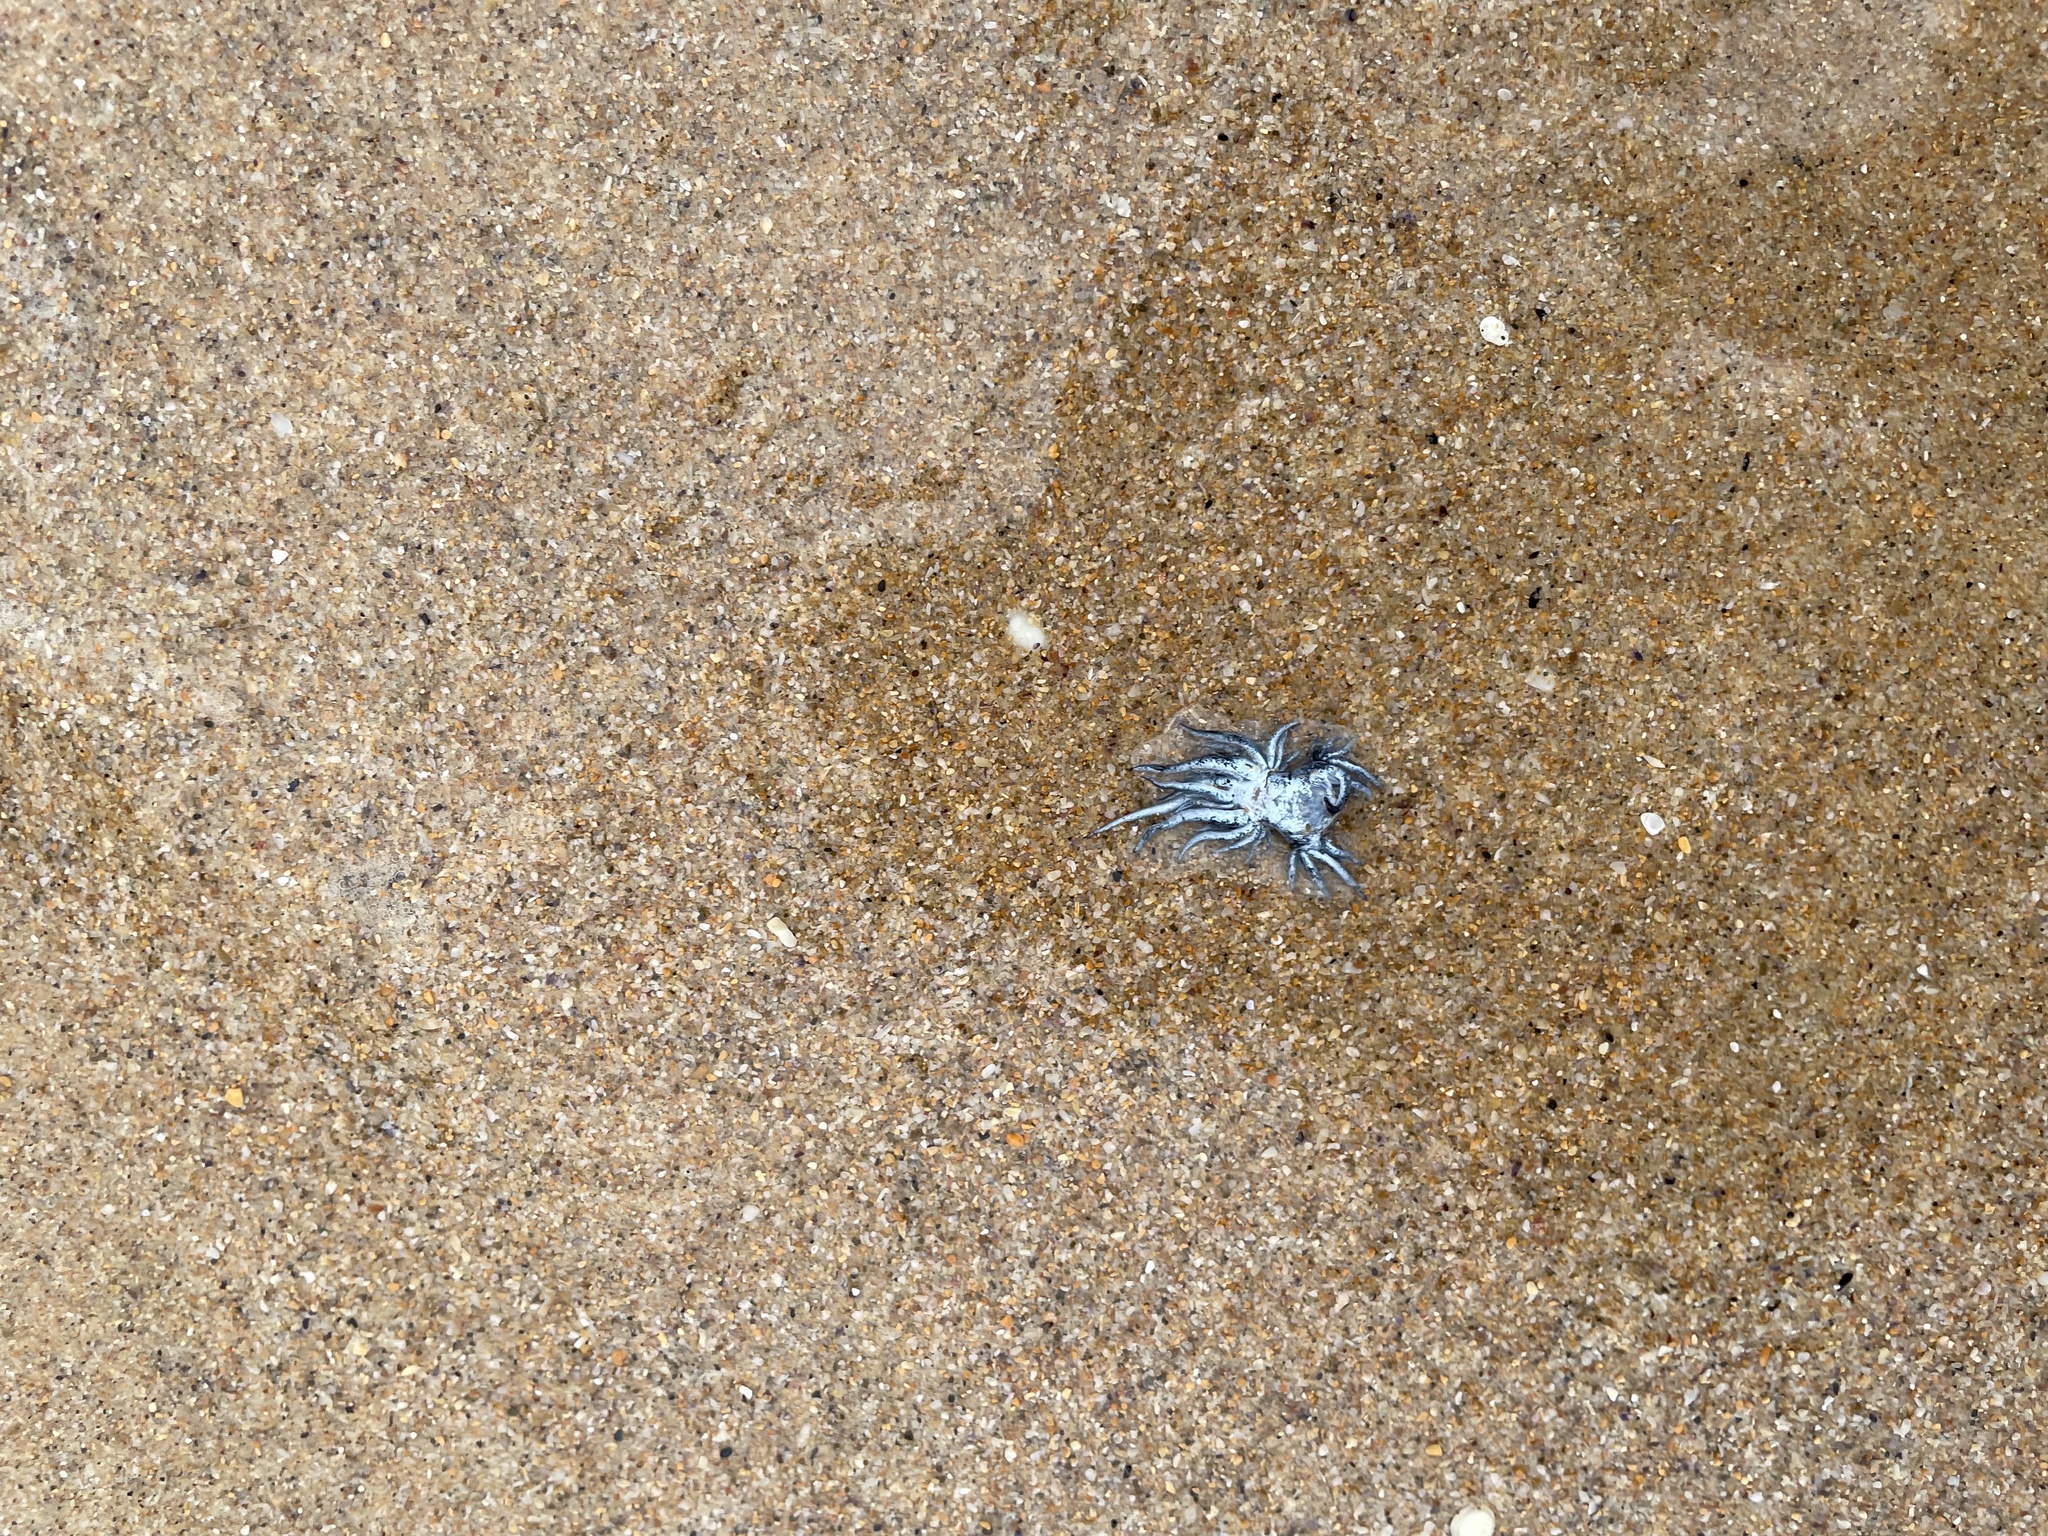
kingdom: Animalia
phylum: Mollusca
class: Gastropoda
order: Nudibranchia
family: Glaucidae
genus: Glaucus
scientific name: Glaucus atlanticus
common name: Purple ocean slug
